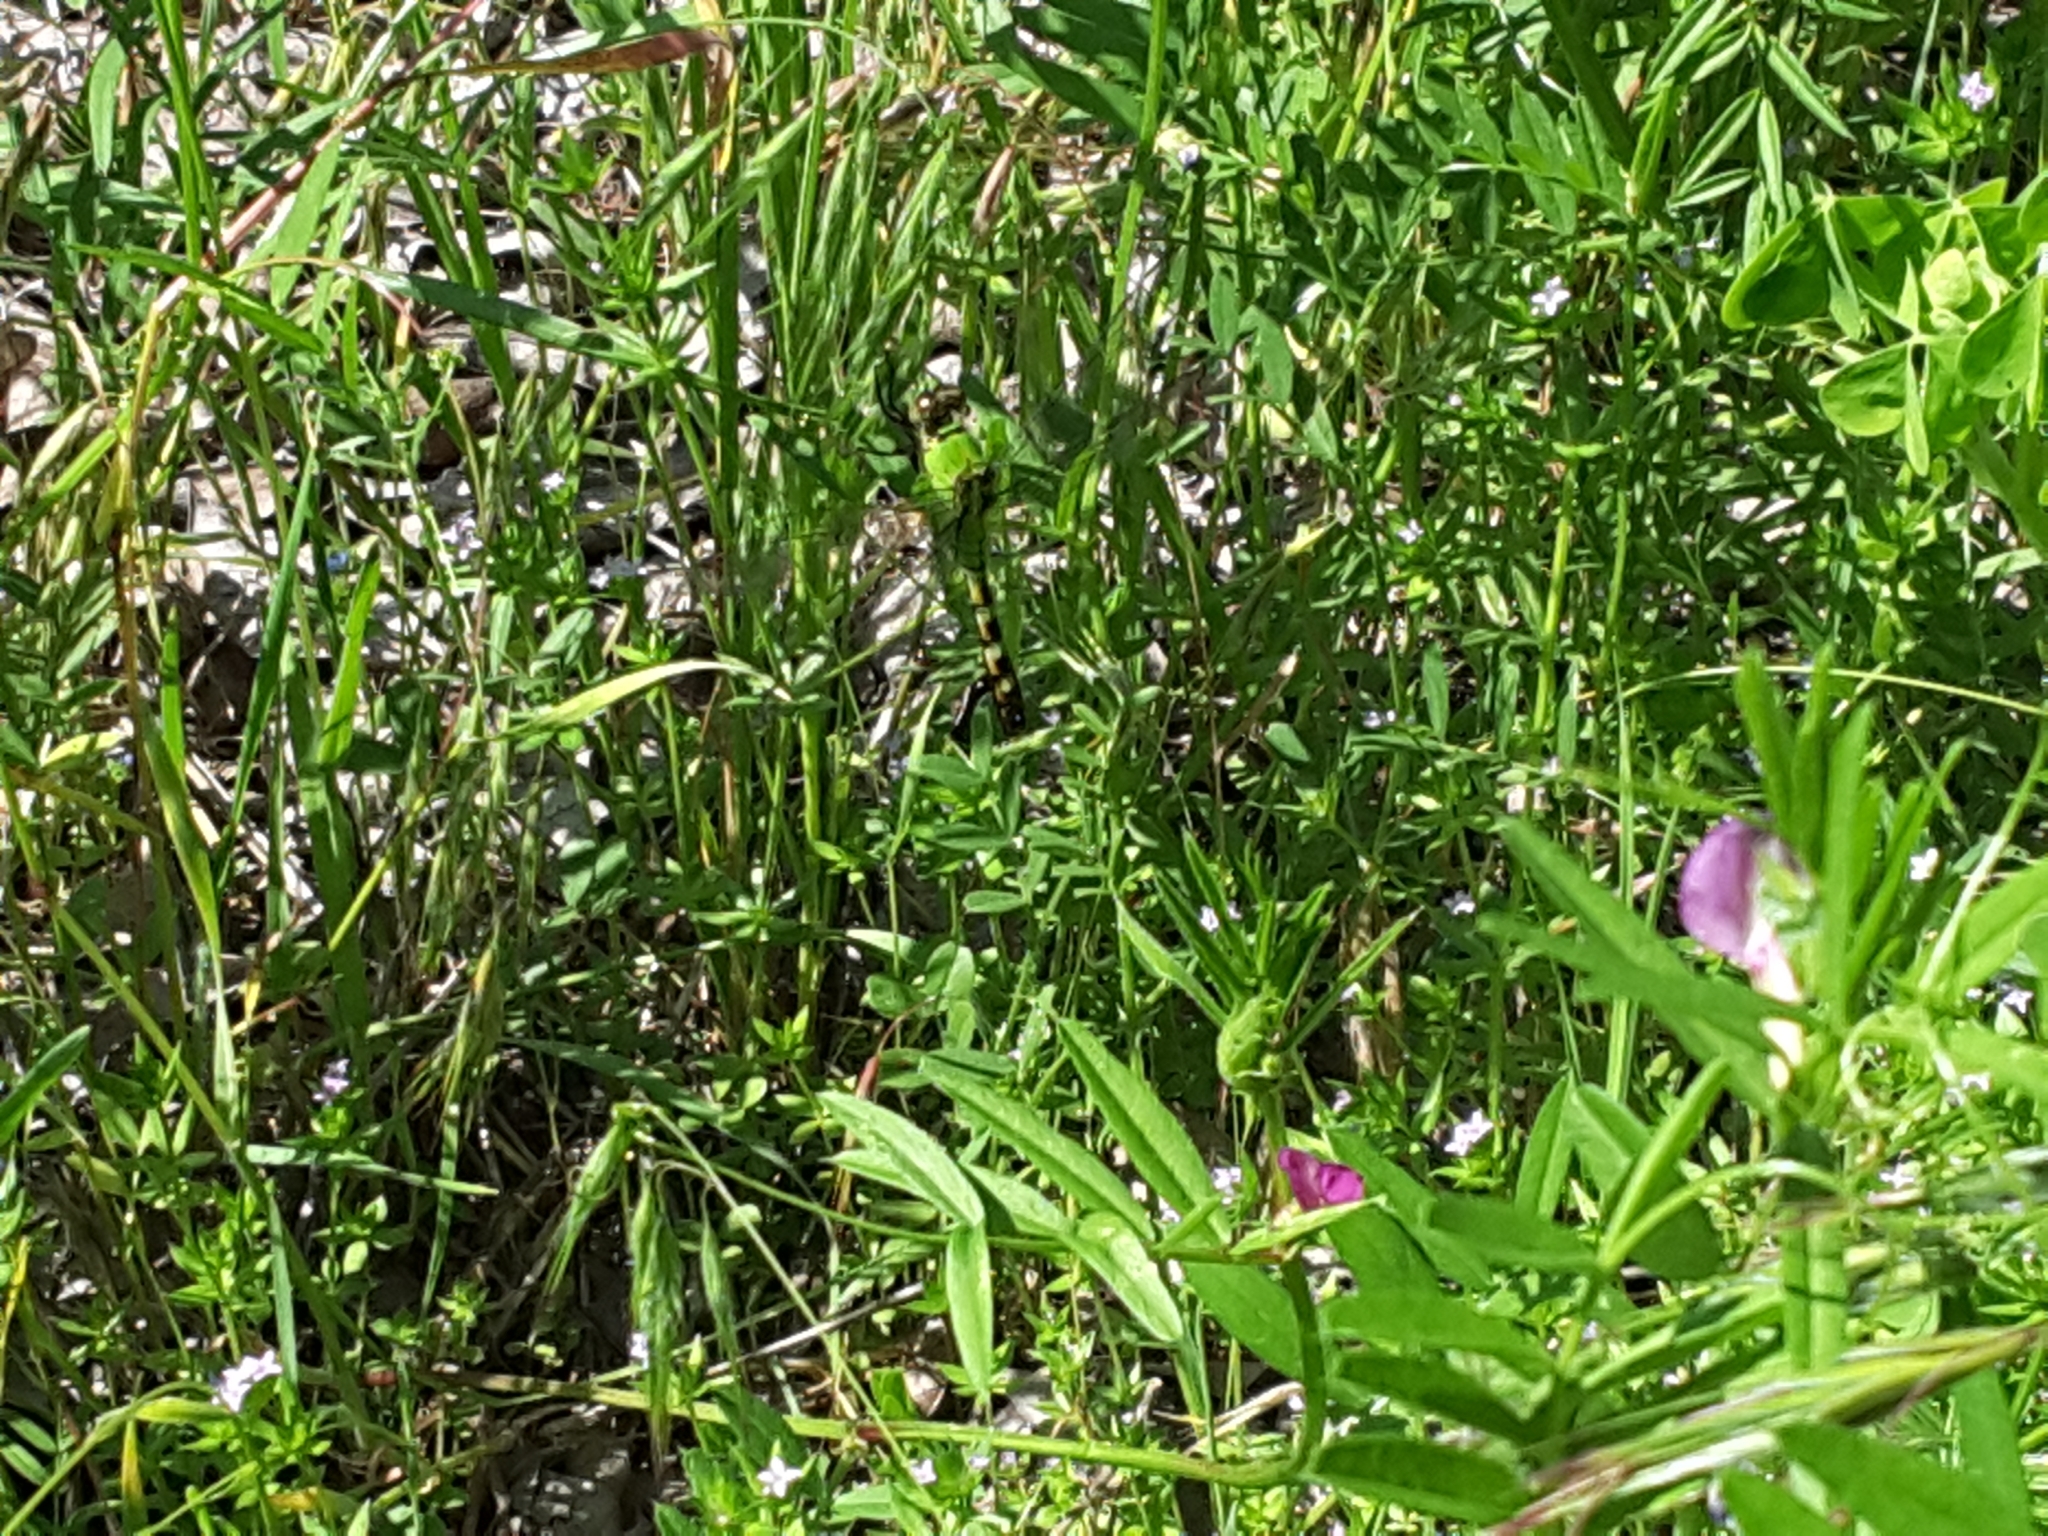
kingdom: Animalia
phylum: Arthropoda
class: Insecta
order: Odonata
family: Libellulidae
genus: Erythemis
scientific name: Erythemis simplicicollis
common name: Eastern pondhawk
